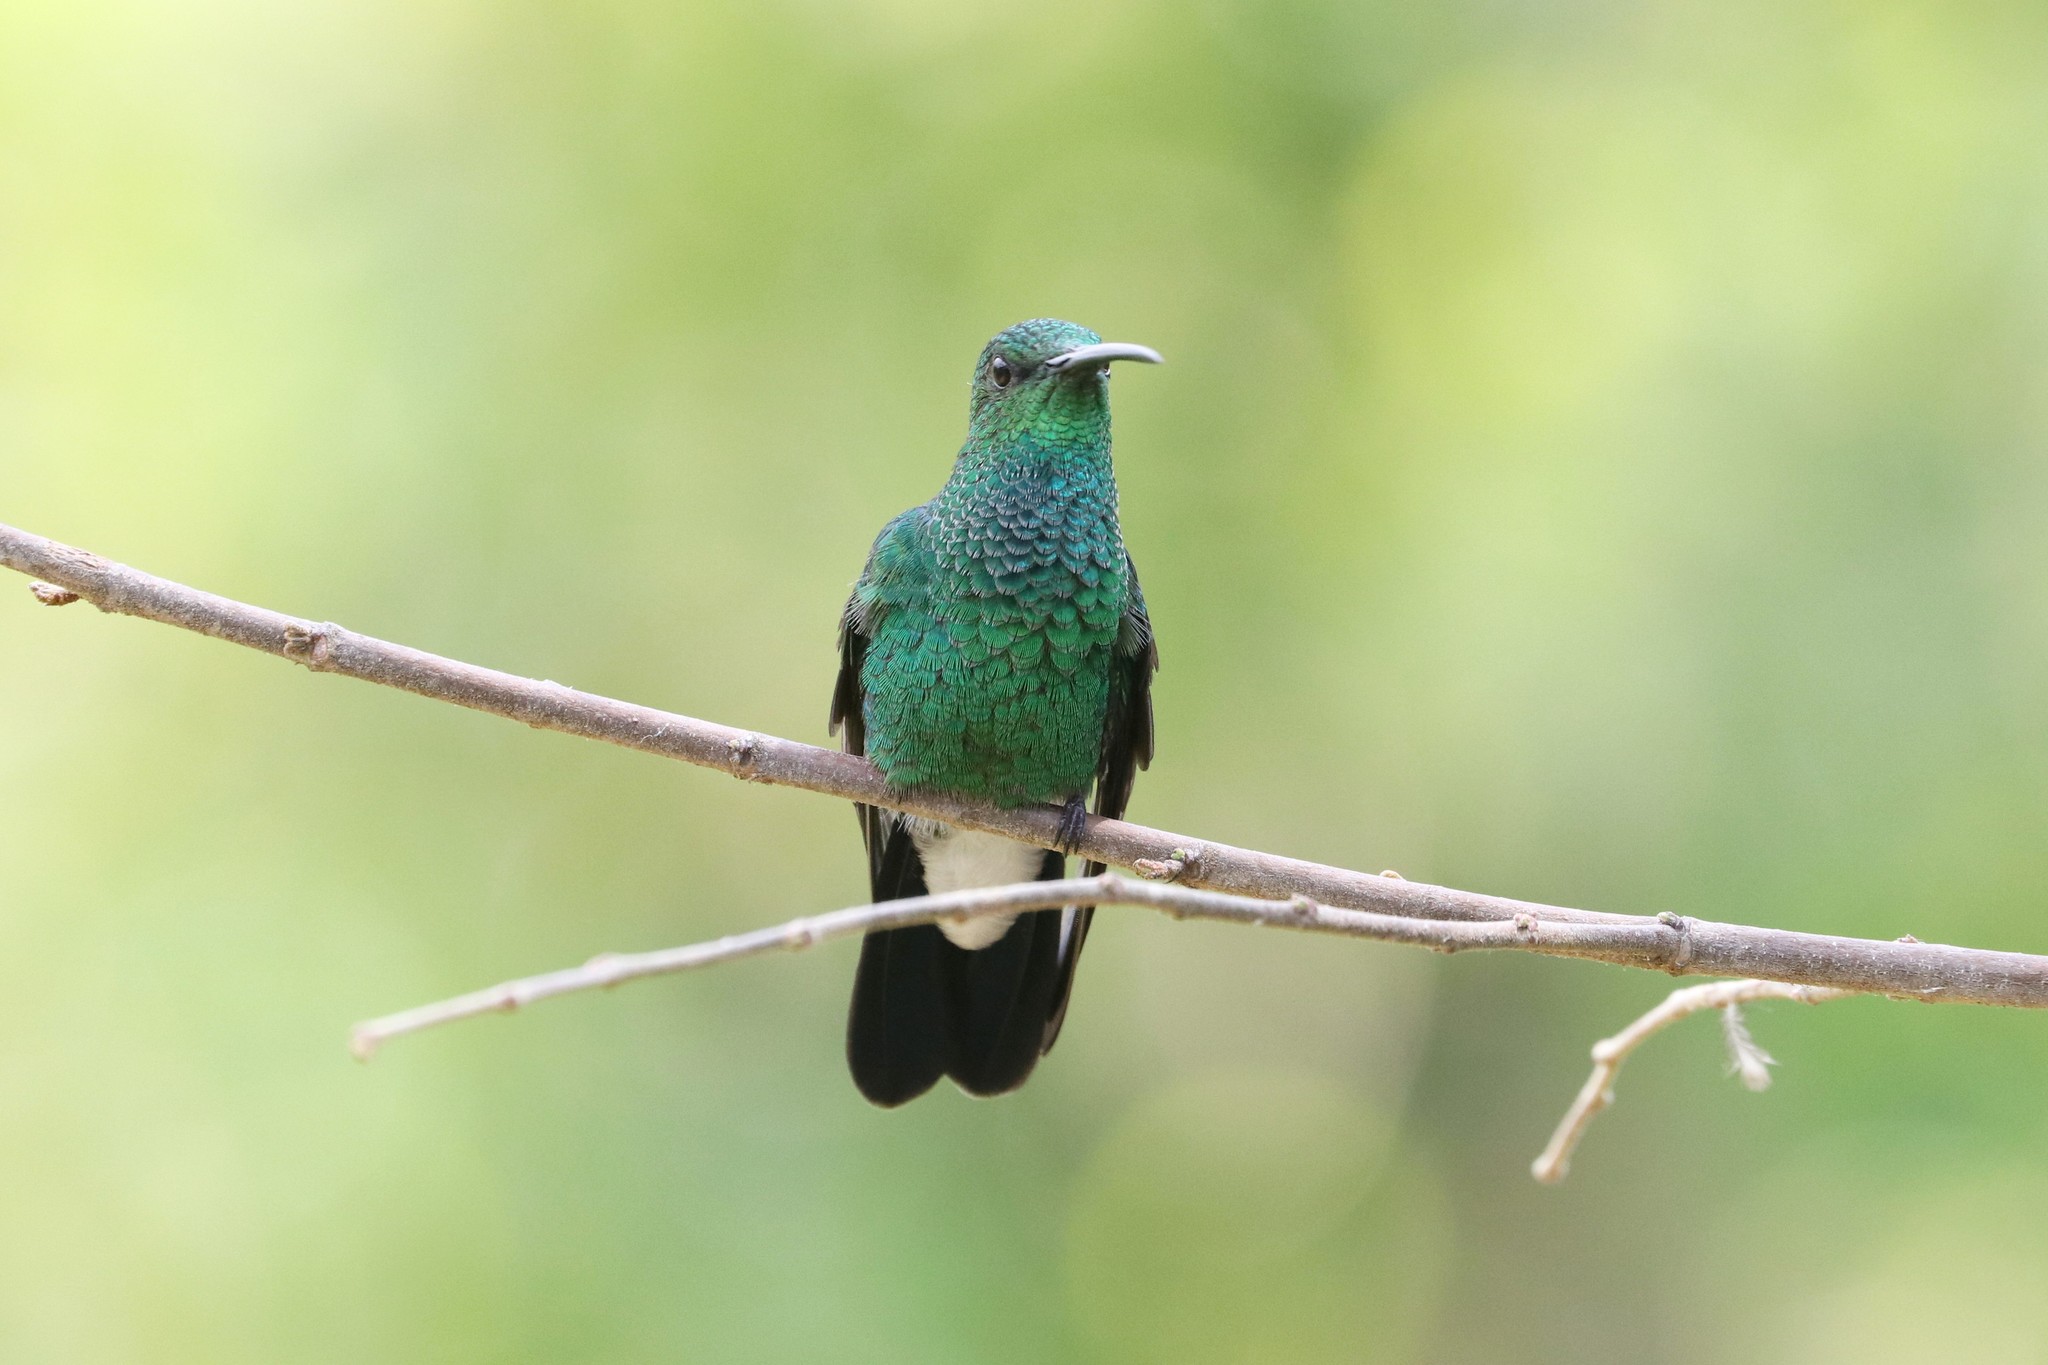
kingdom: Animalia
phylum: Chordata
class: Aves
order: Apodiformes
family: Trochilidae
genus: Chalybura
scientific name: Chalybura buffonii
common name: White-vented plumeleteer
